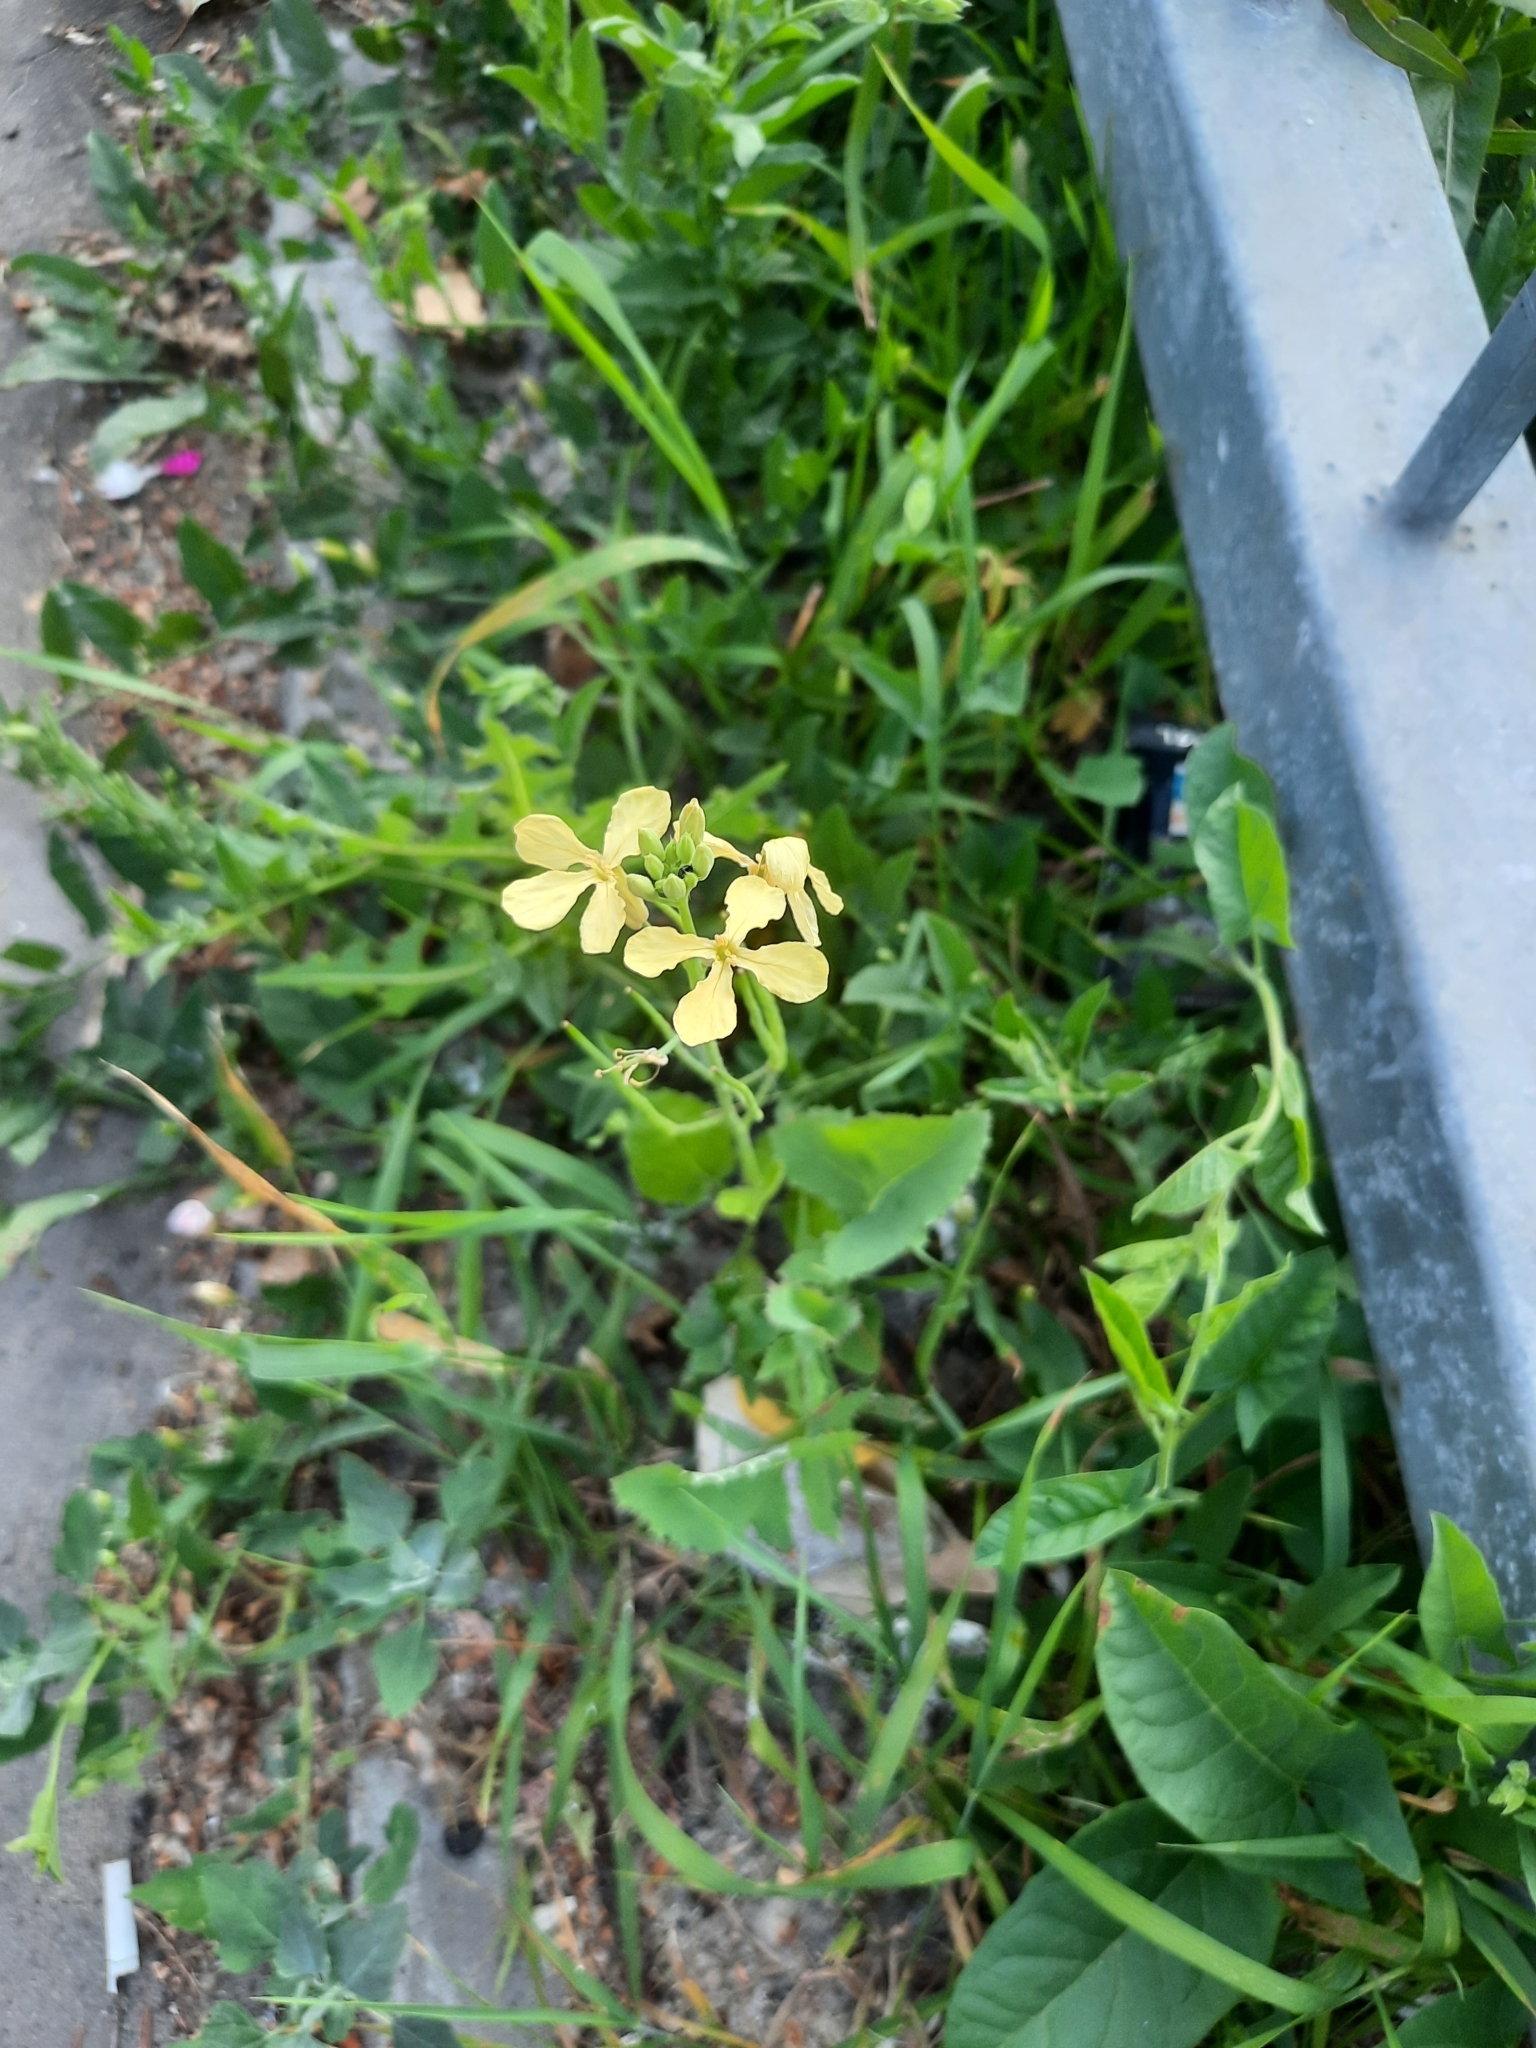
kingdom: Plantae
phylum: Tracheophyta
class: Magnoliopsida
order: Brassicales
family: Brassicaceae
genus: Raphanus
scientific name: Raphanus raphanistrum
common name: Wild radish
